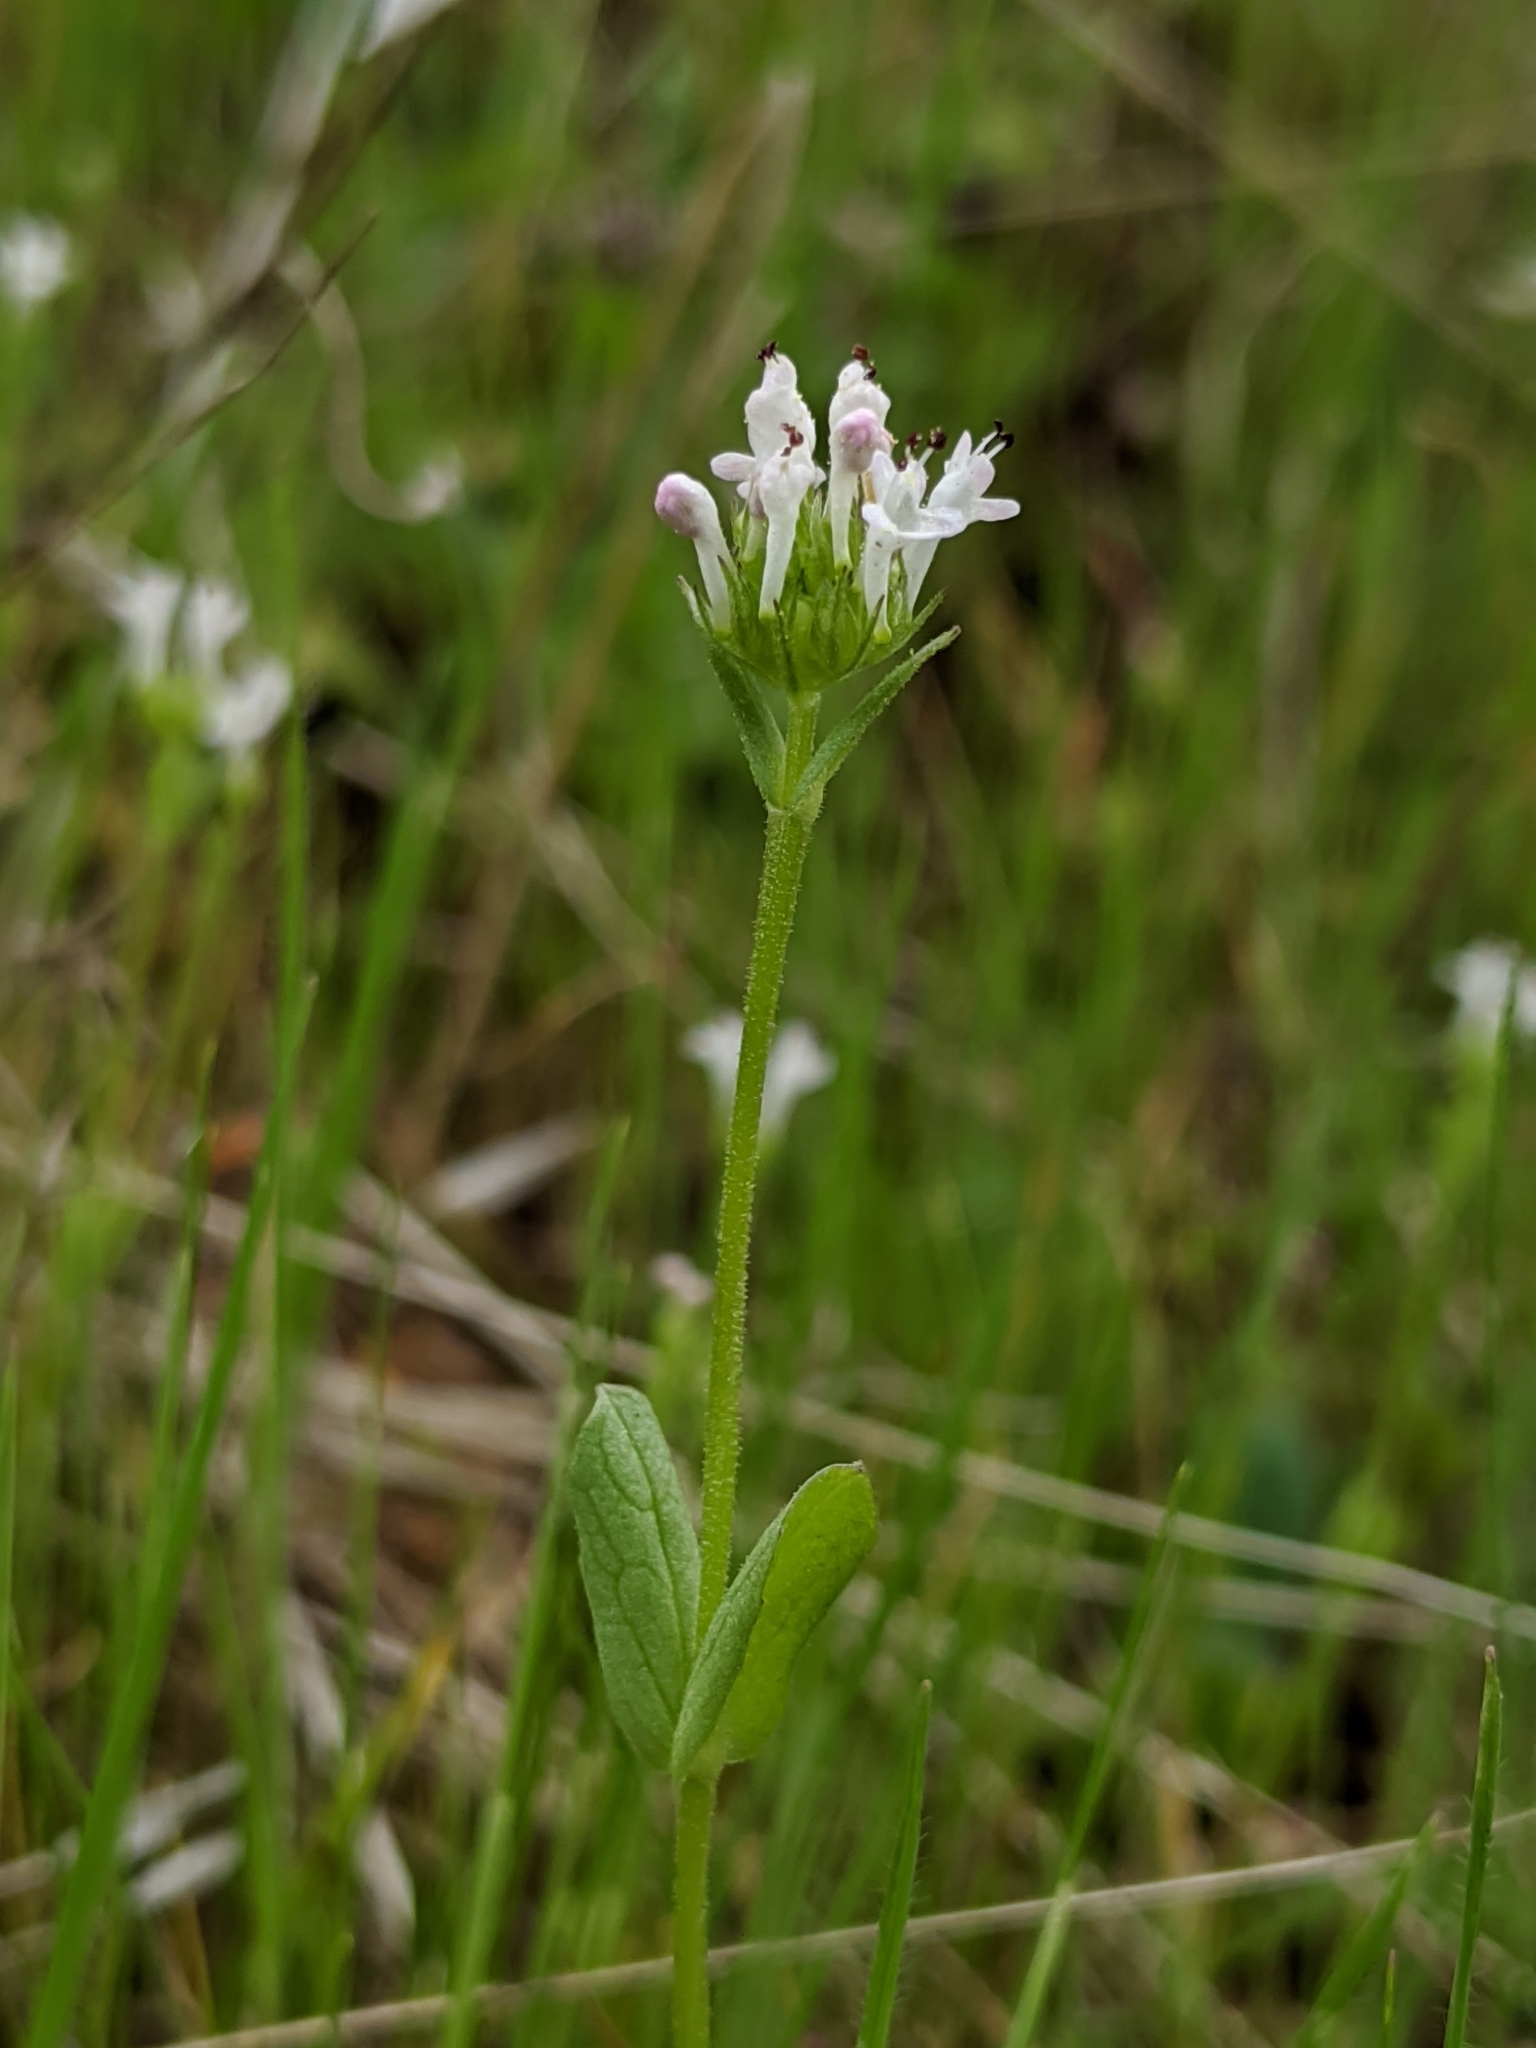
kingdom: Plantae
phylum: Tracheophyta
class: Magnoliopsida
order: Dipsacales
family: Caprifoliaceae
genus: Plectritis
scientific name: Plectritis macroptera
